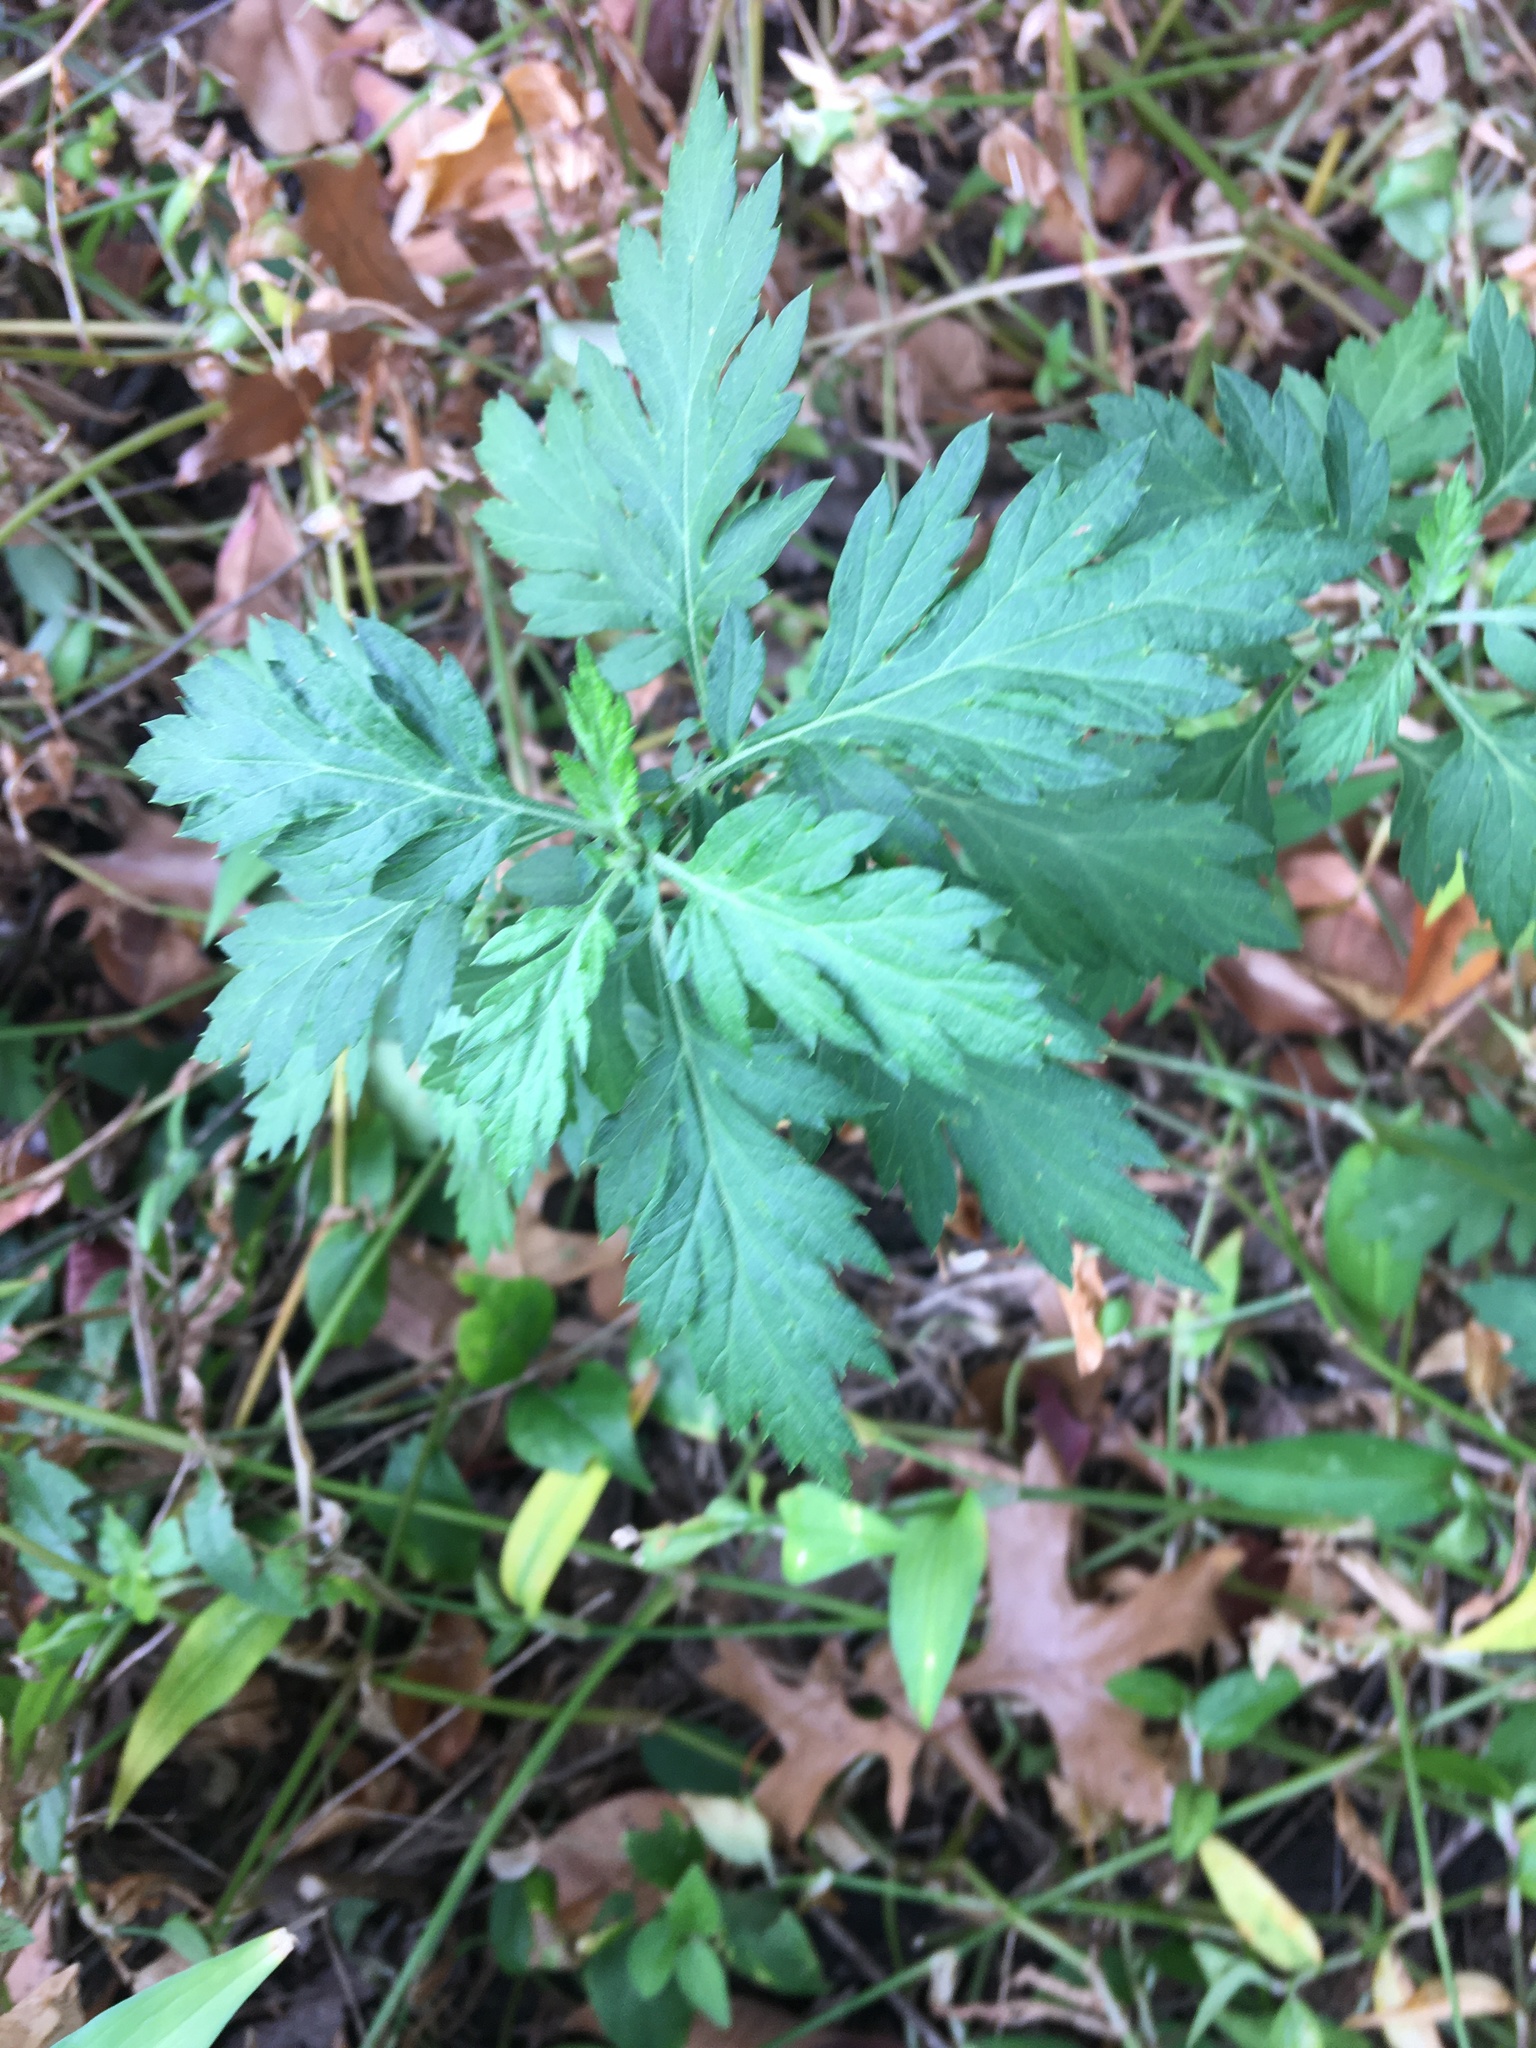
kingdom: Plantae
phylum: Tracheophyta
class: Magnoliopsida
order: Asterales
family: Asteraceae
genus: Artemisia
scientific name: Artemisia vulgaris
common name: Mugwort
